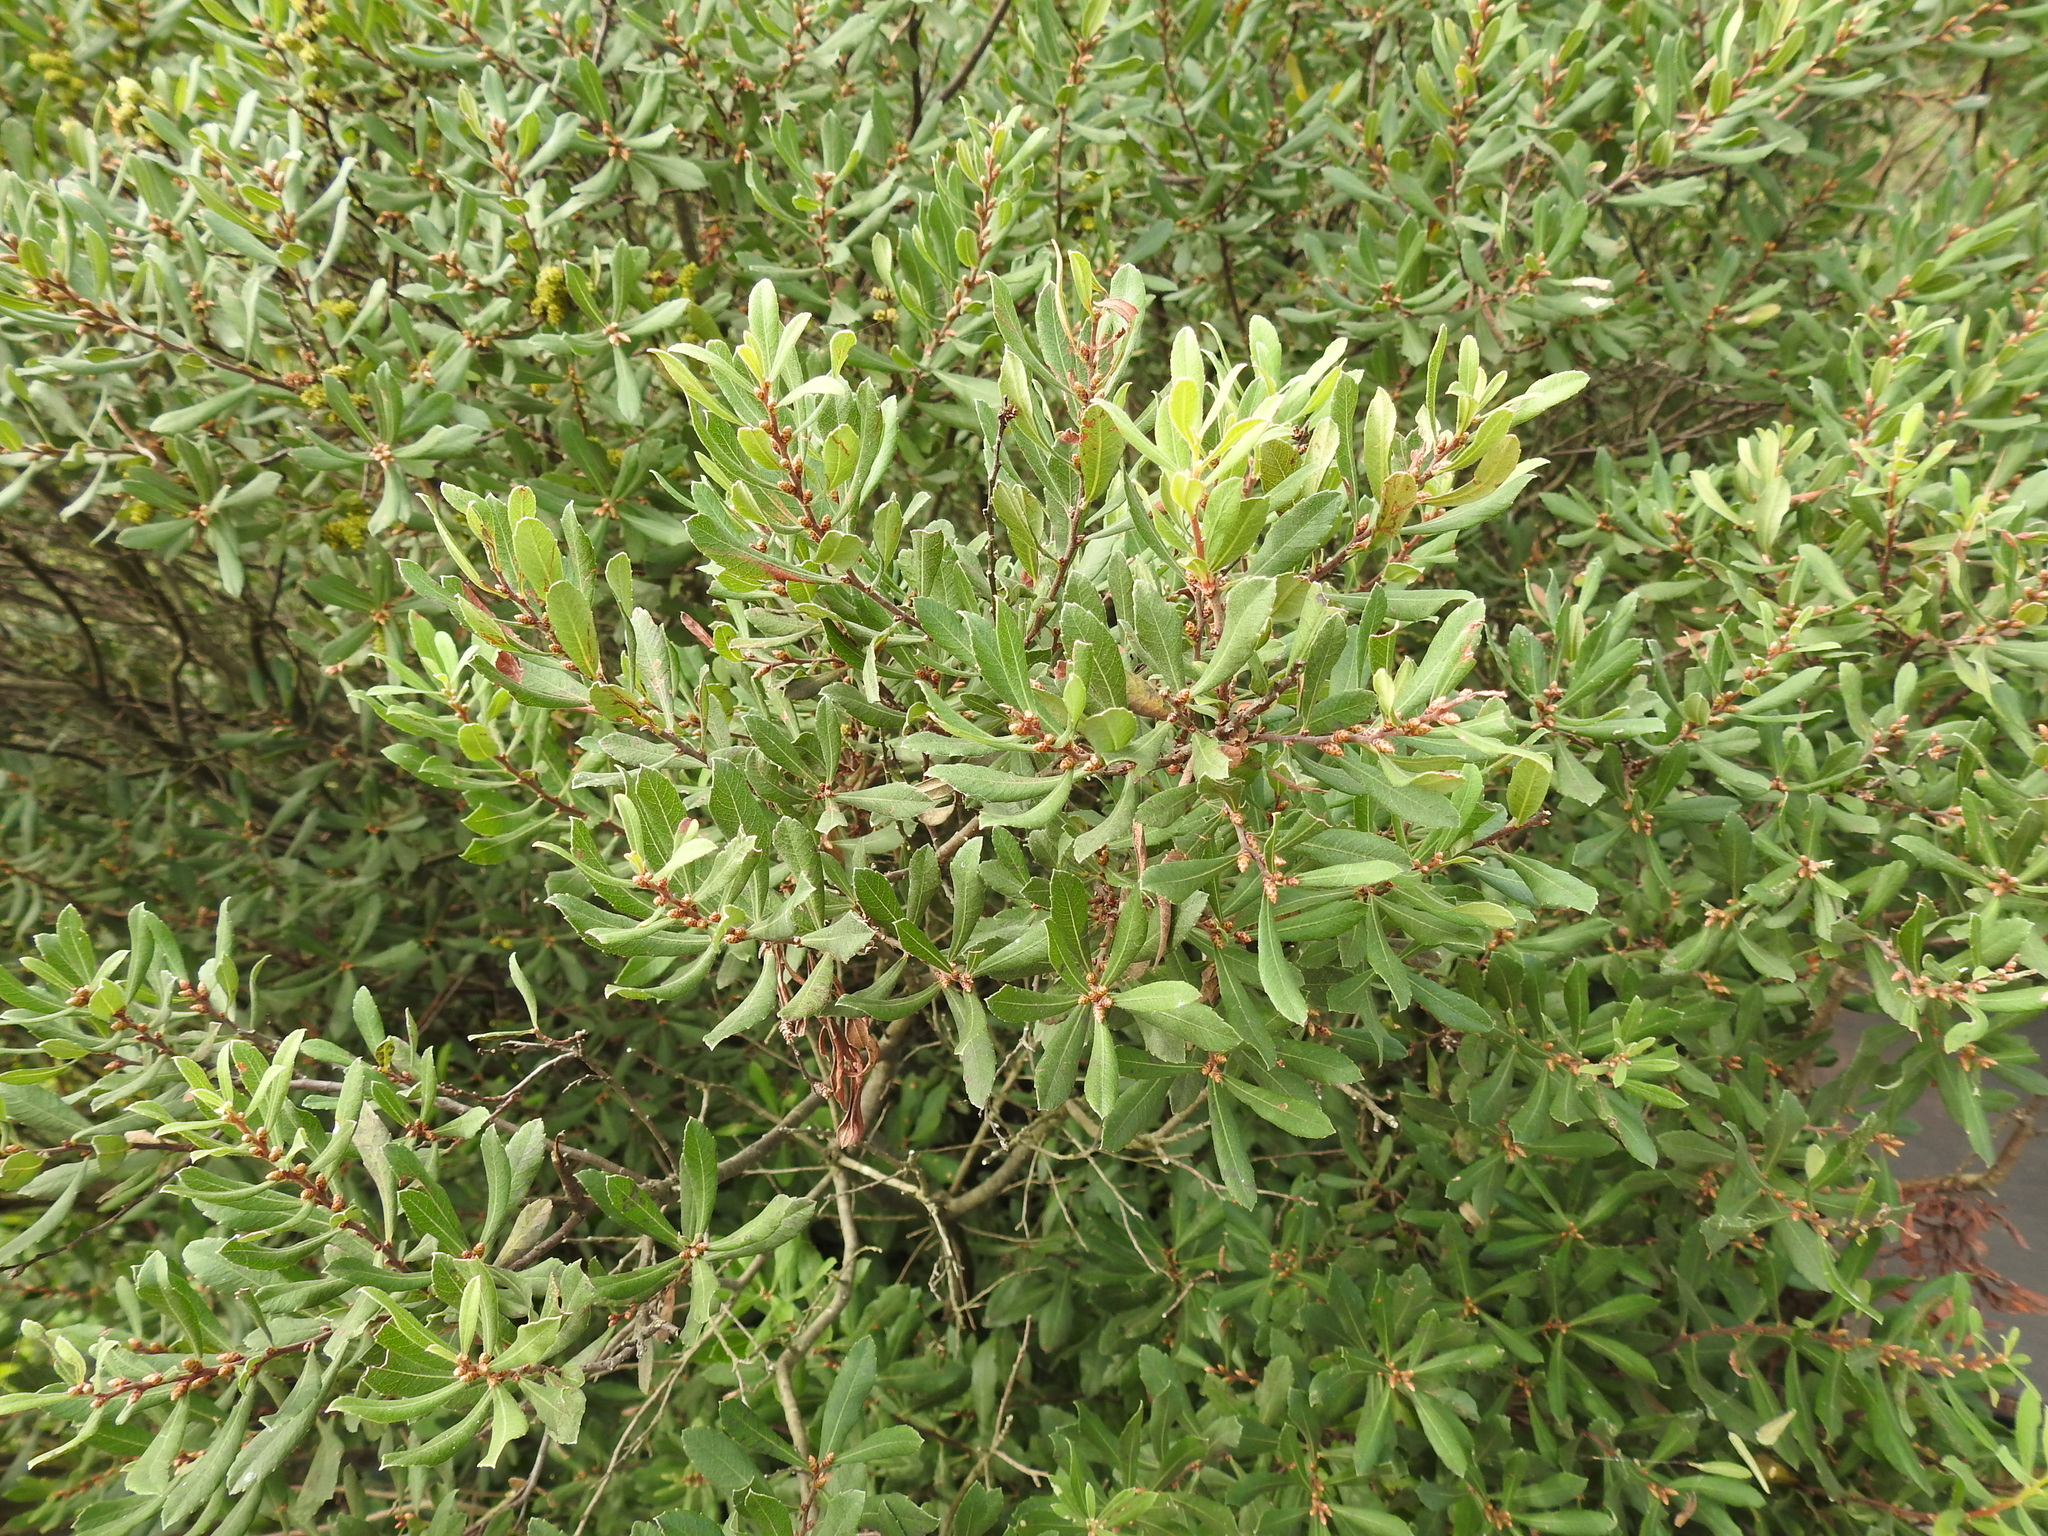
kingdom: Plantae
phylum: Tracheophyta
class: Magnoliopsida
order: Fagales
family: Myricaceae
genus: Myrica
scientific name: Myrica gale
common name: Sweet gale
